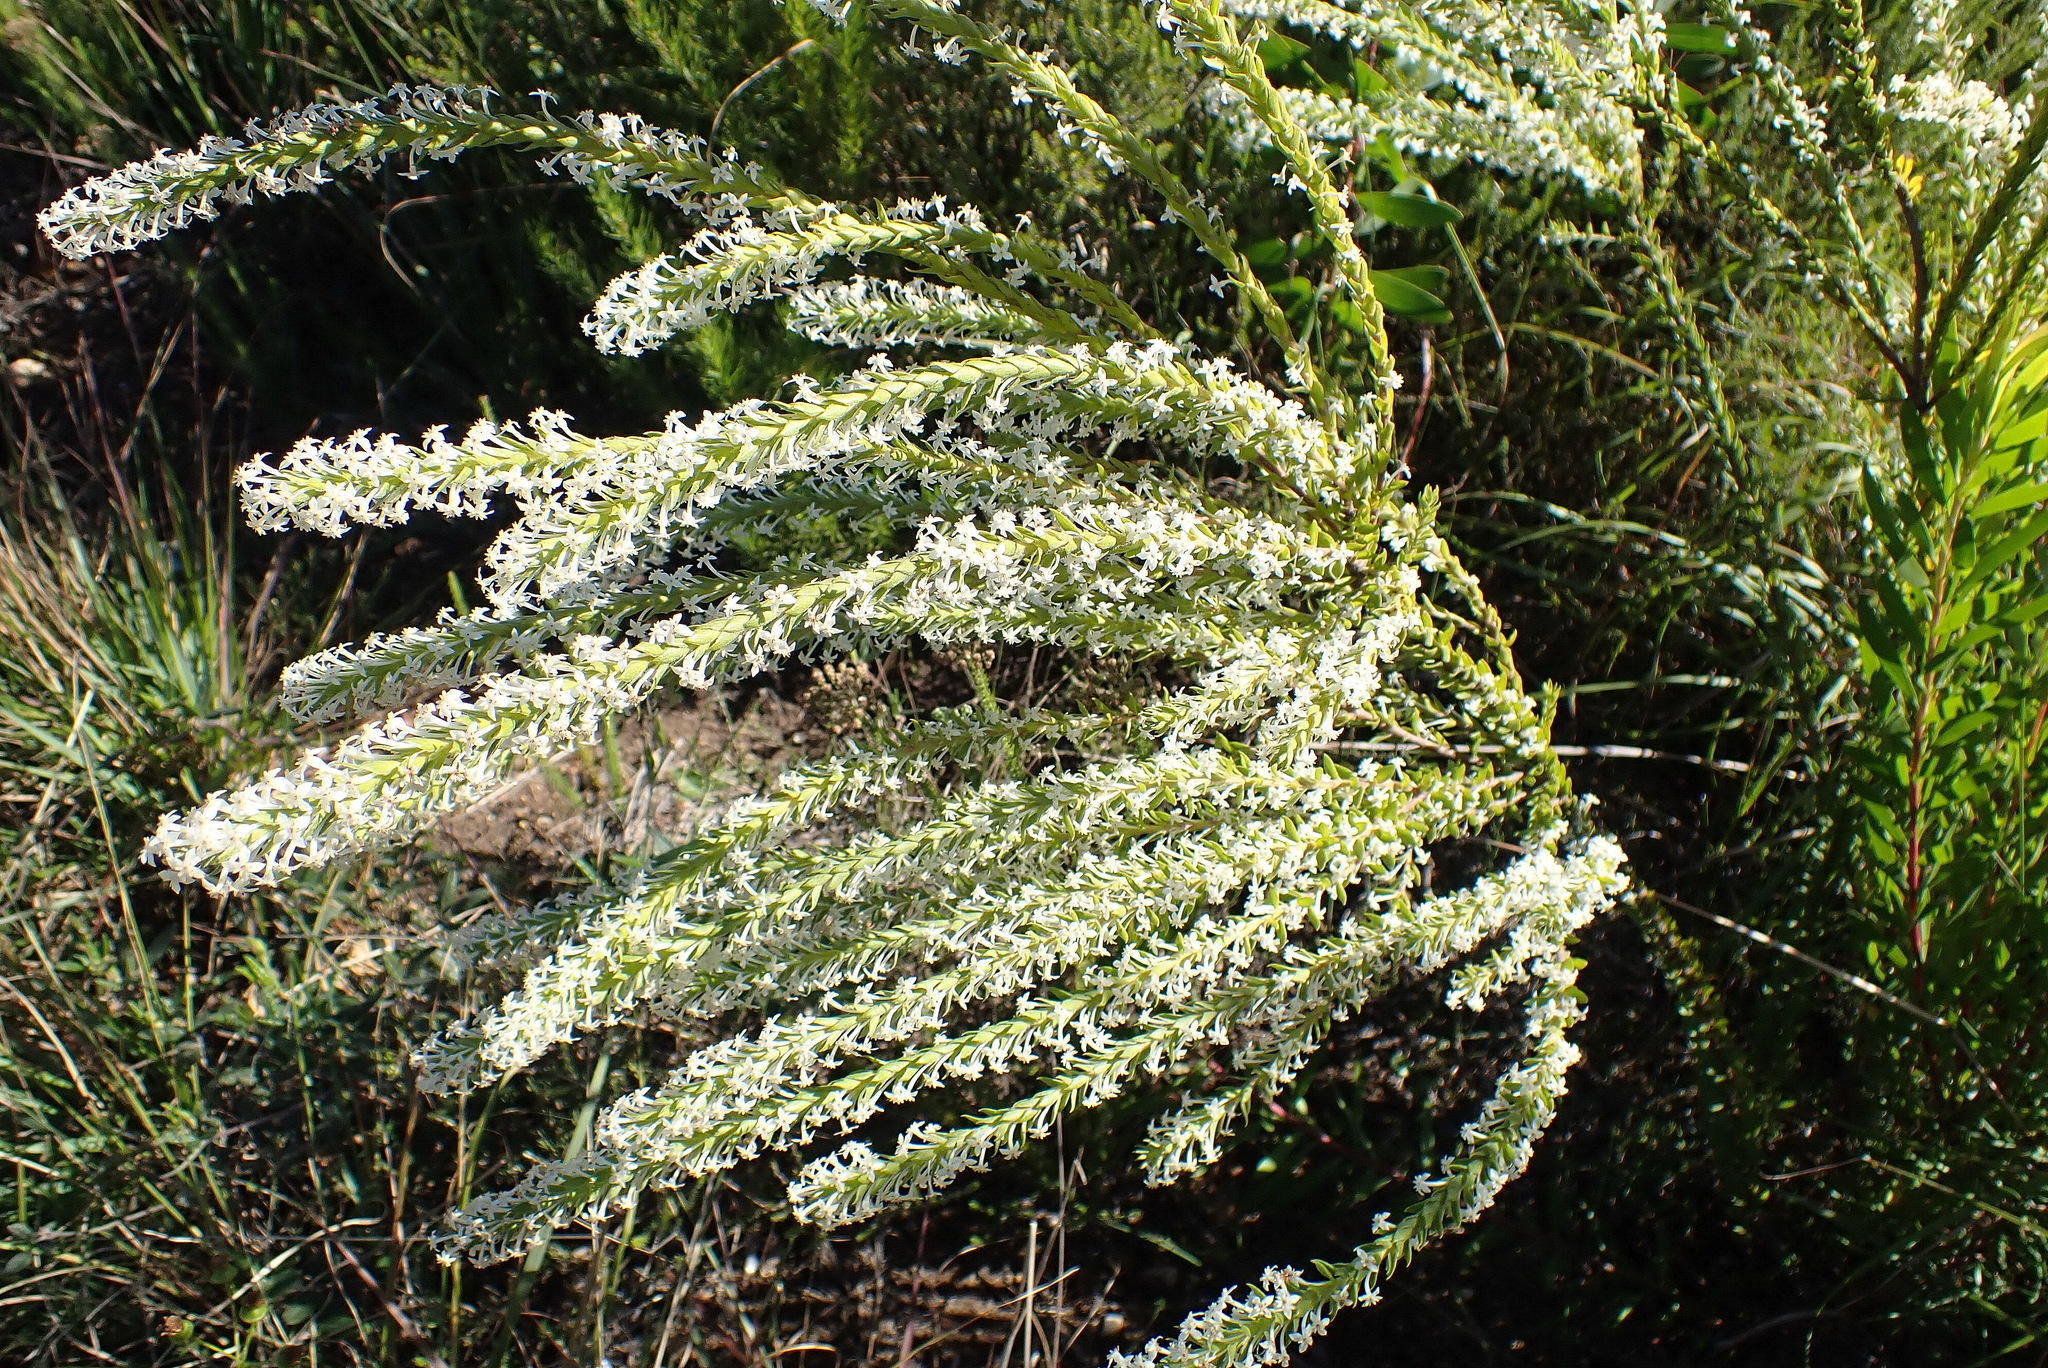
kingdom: Plantae
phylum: Tracheophyta
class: Magnoliopsida
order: Malvales
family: Thymelaeaceae
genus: Struthiola
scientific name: Struthiola hirsuta
